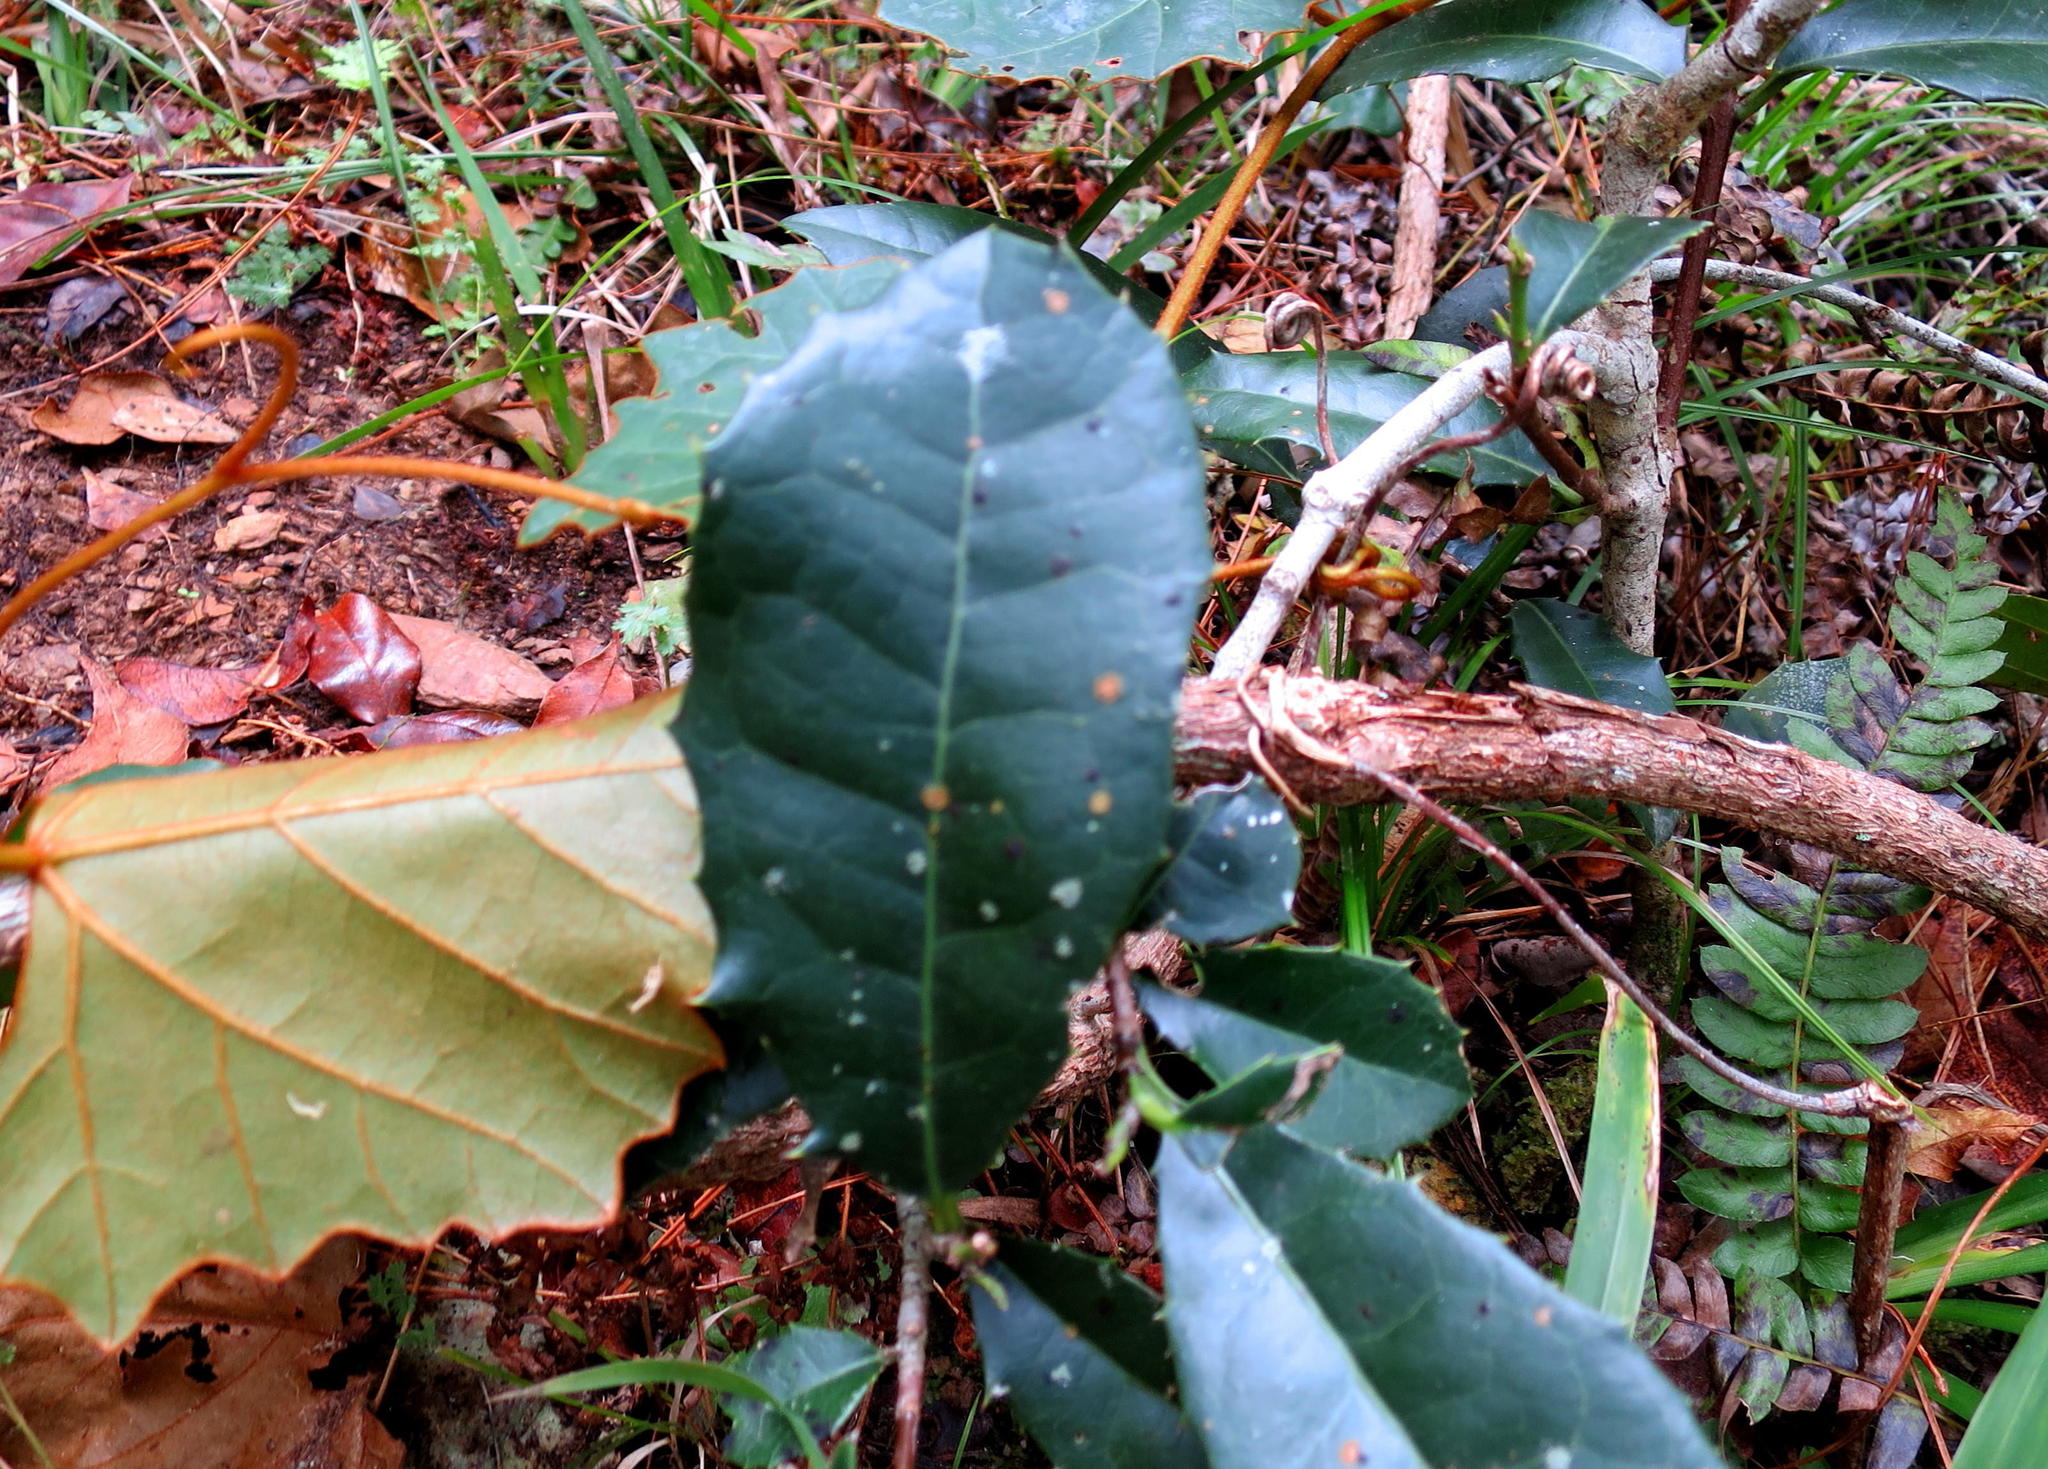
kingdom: Plantae
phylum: Tracheophyta
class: Magnoliopsida
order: Celastrales
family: Celastraceae
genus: Elaeodendron
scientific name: Elaeodendron croceum
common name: Saffron
